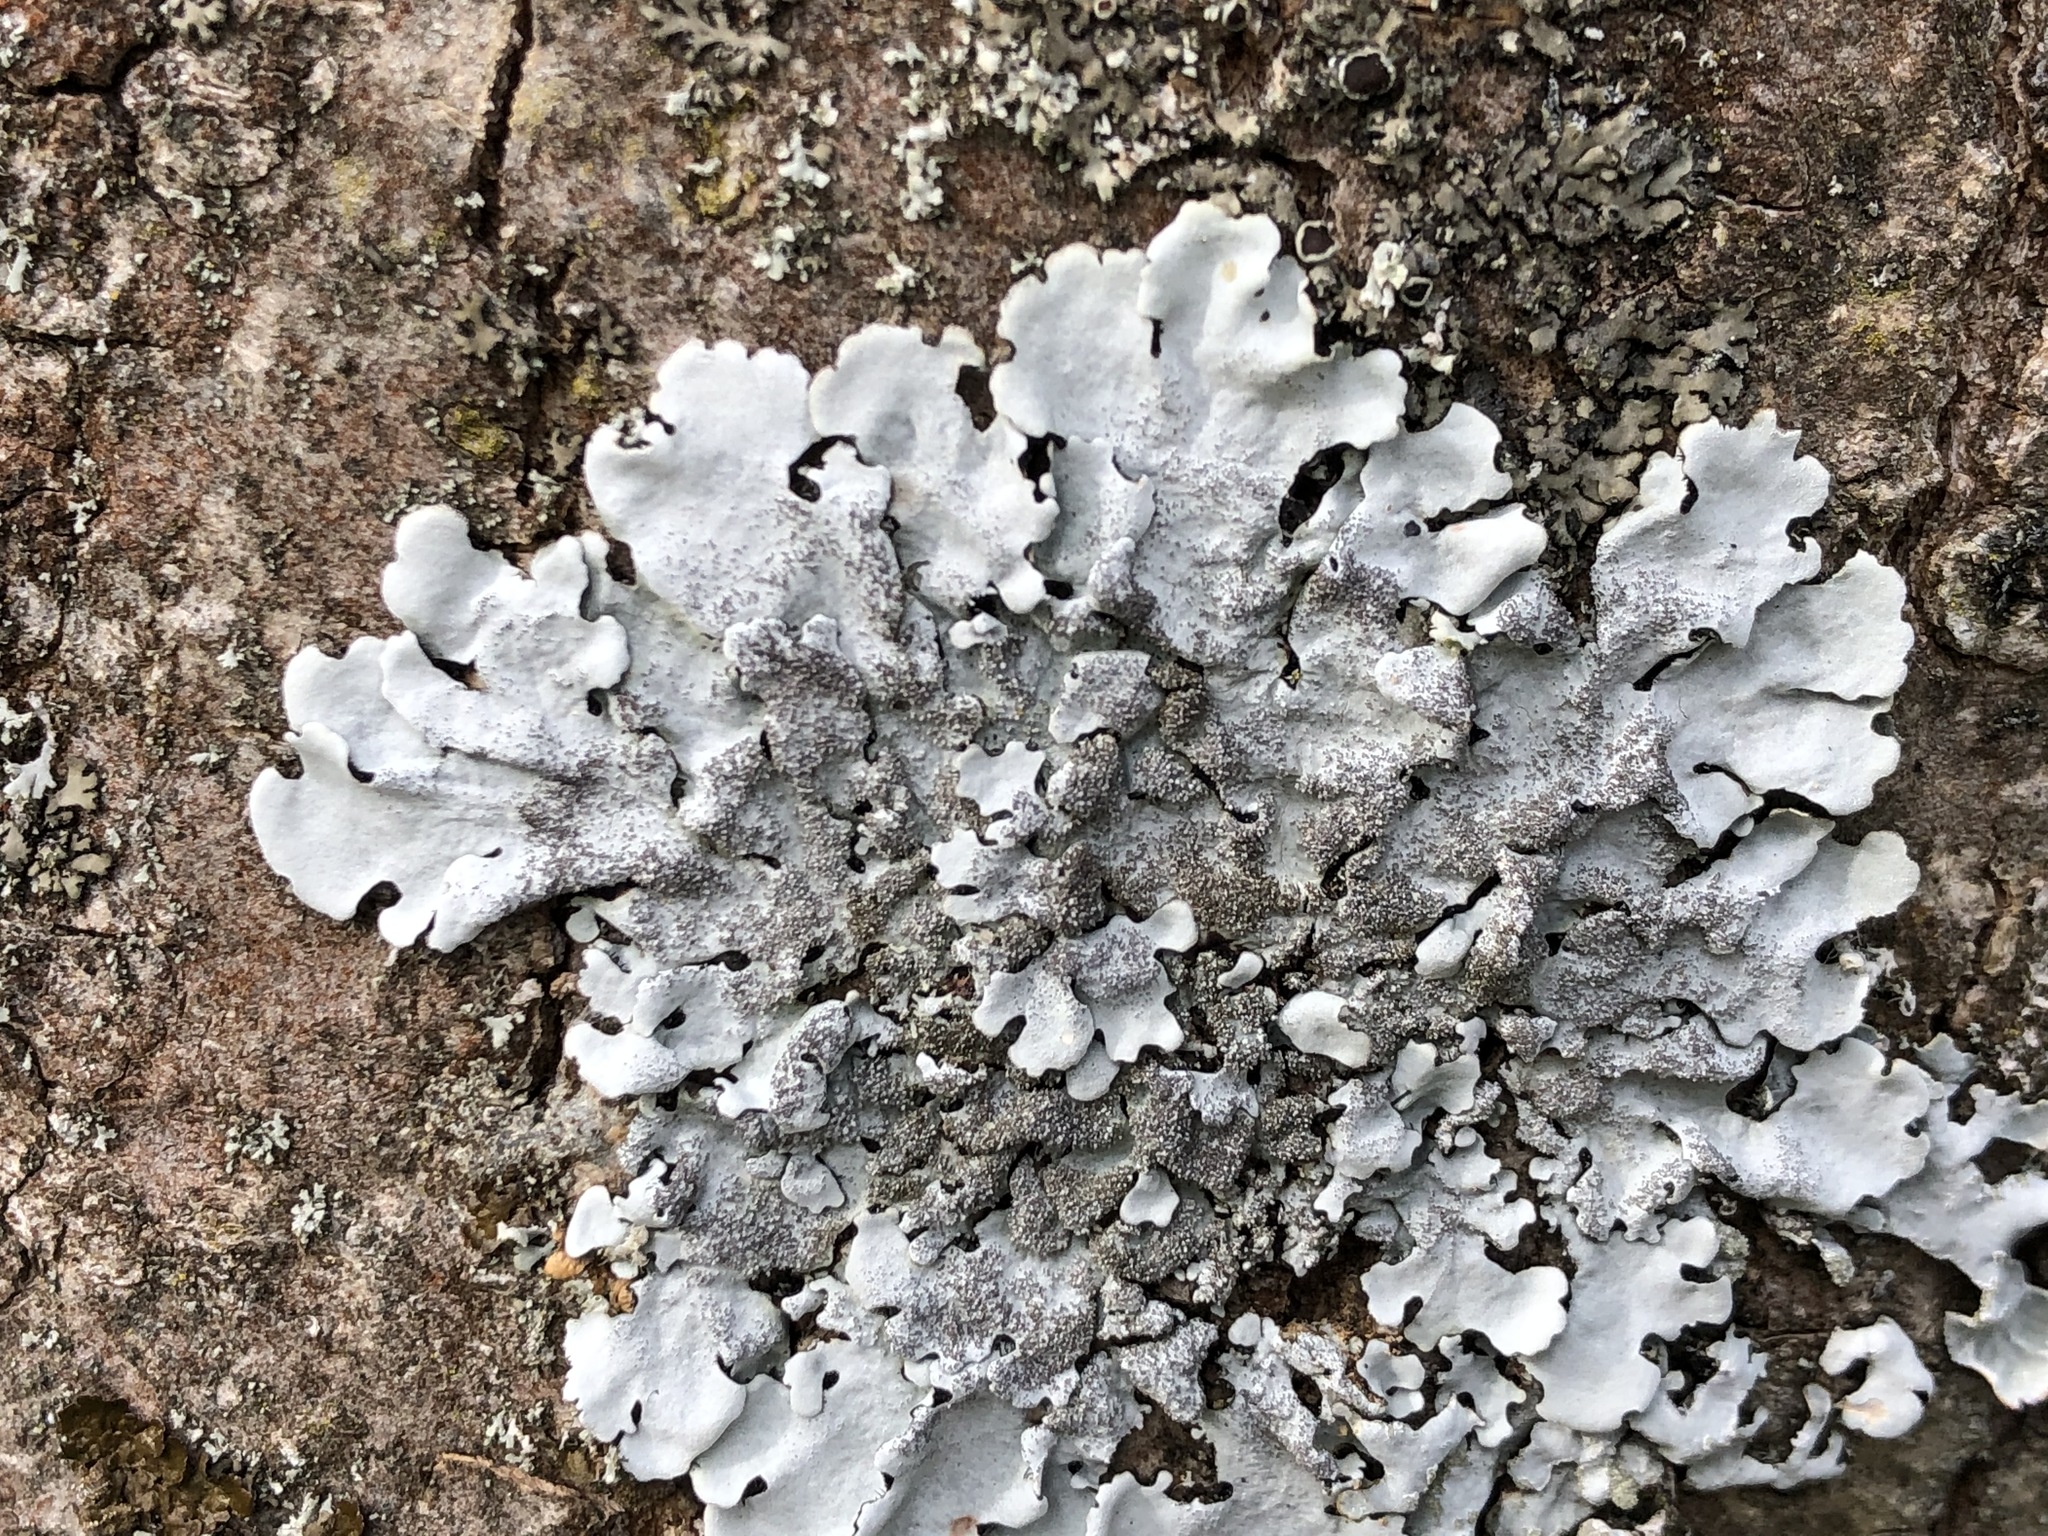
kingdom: Fungi
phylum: Ascomycota
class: Lecanoromycetes
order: Lecanorales
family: Parmeliaceae
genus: Parmelina
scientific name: Parmelina tiliacea
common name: Linden shield lichen
